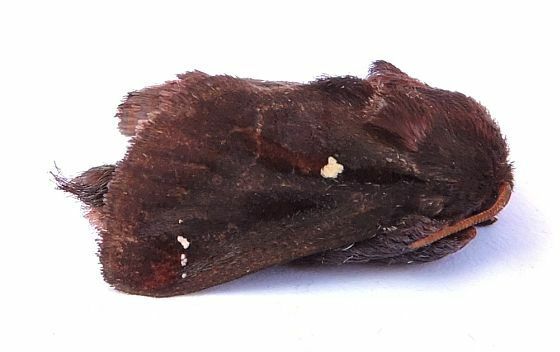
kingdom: Animalia
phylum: Arthropoda
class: Insecta
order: Lepidoptera
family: Limacodidae
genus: Acharia
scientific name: Acharia stimulea
